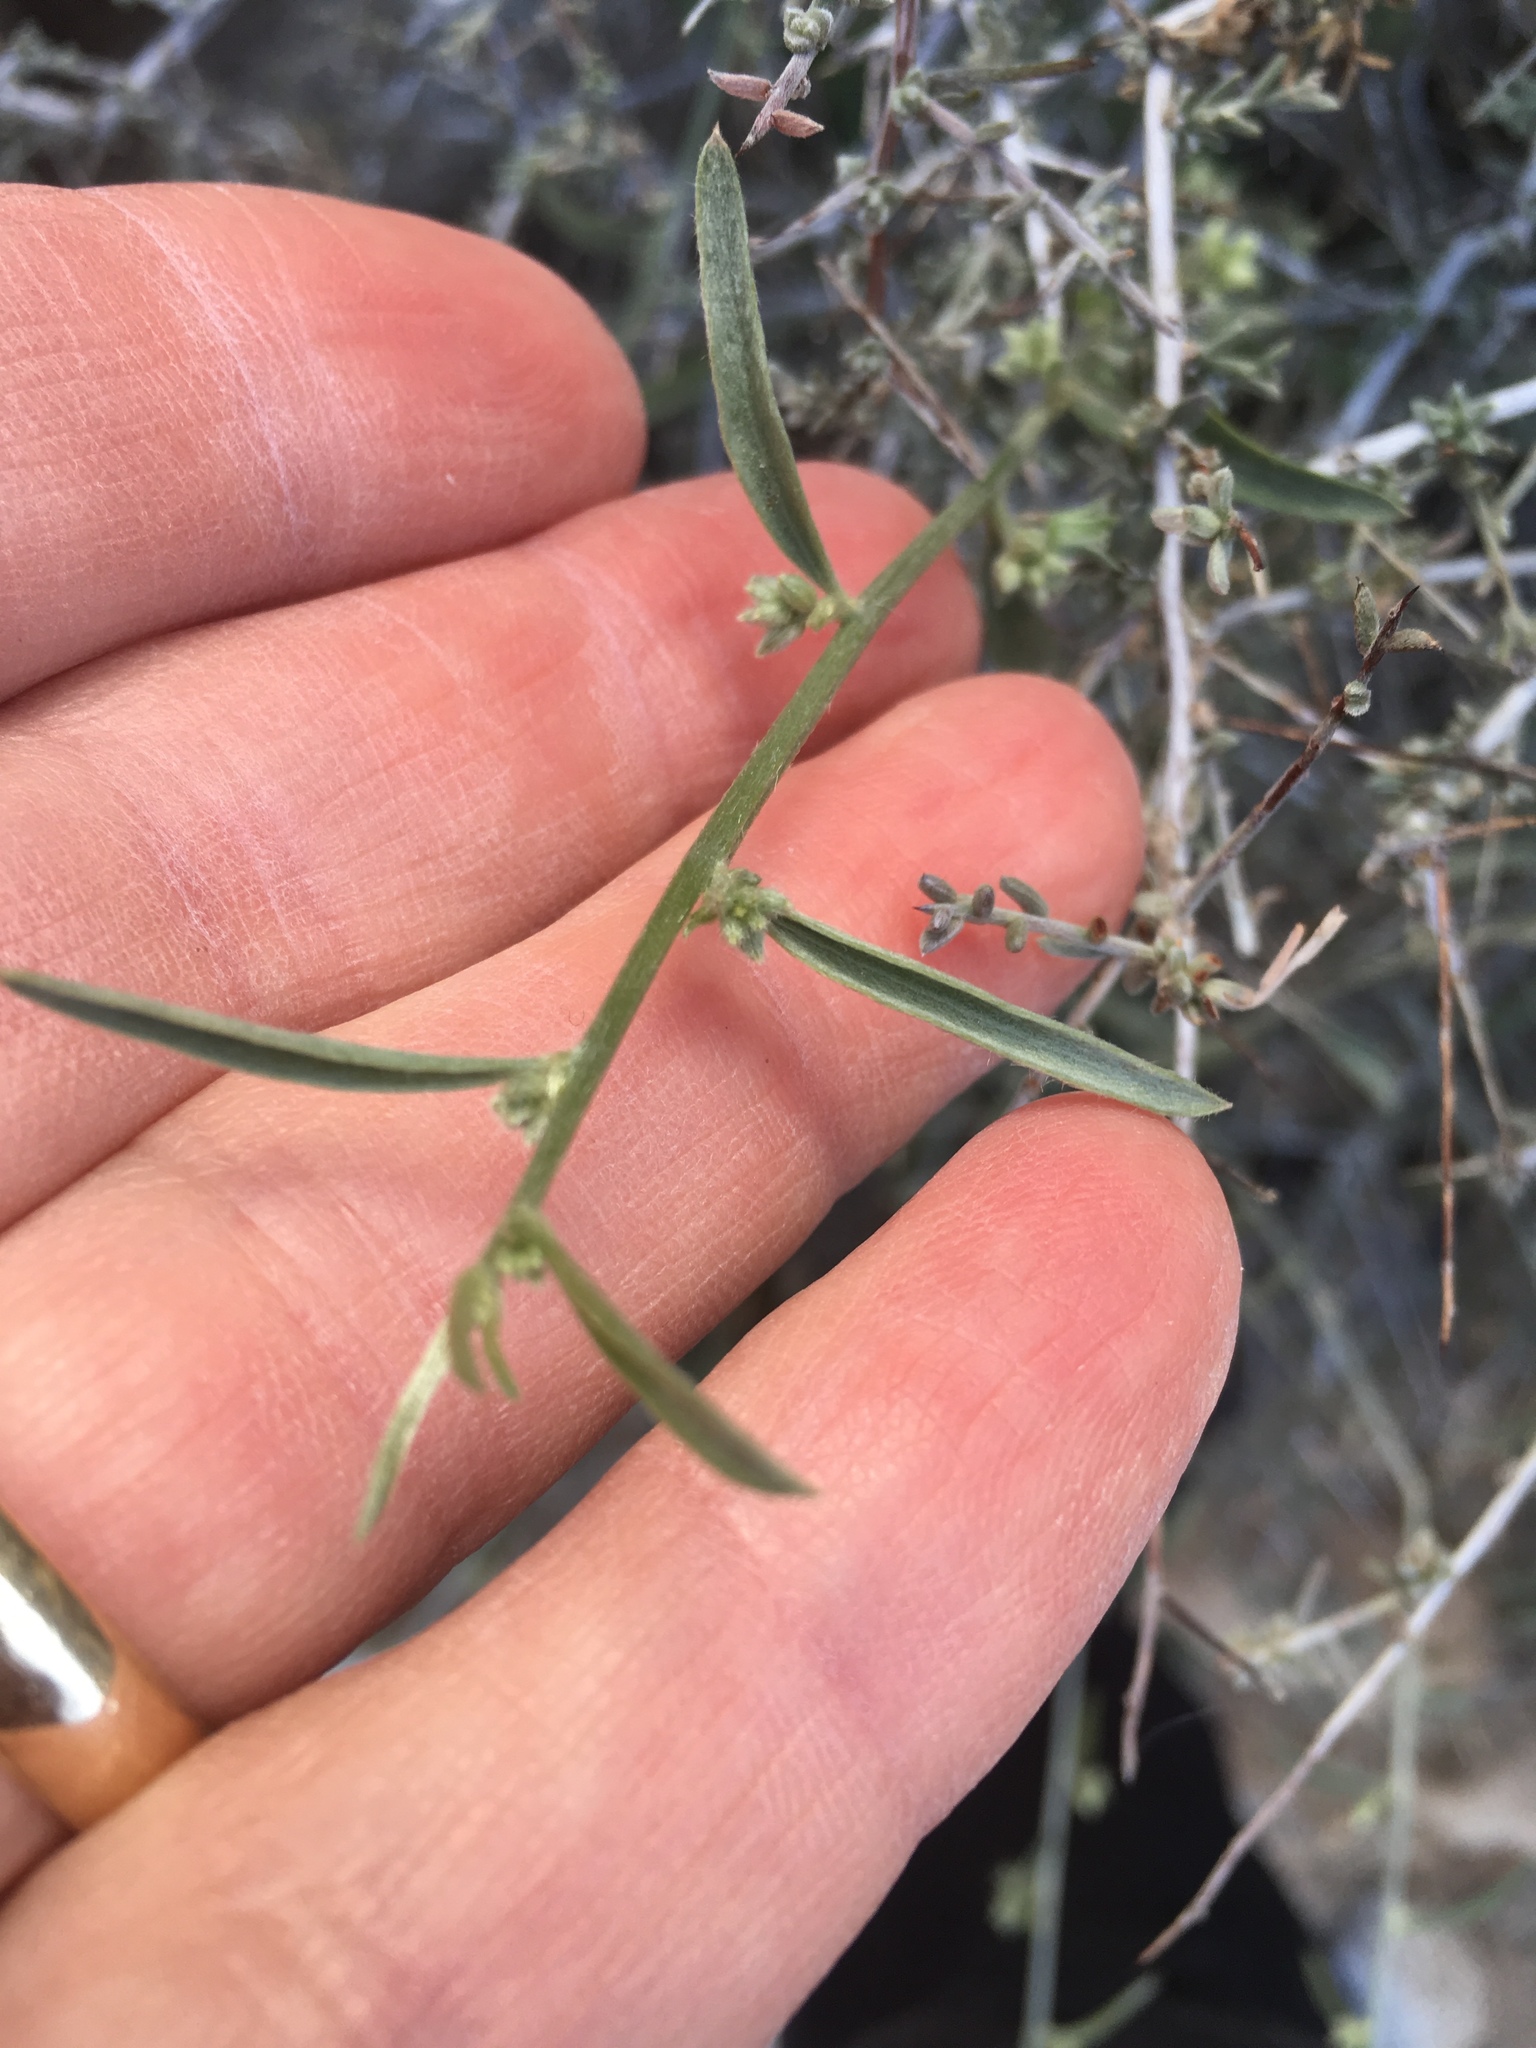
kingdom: Plantae
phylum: Tracheophyta
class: Magnoliopsida
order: Malpighiales
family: Euphorbiaceae
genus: Ditaxis
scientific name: Ditaxis lanceolata
